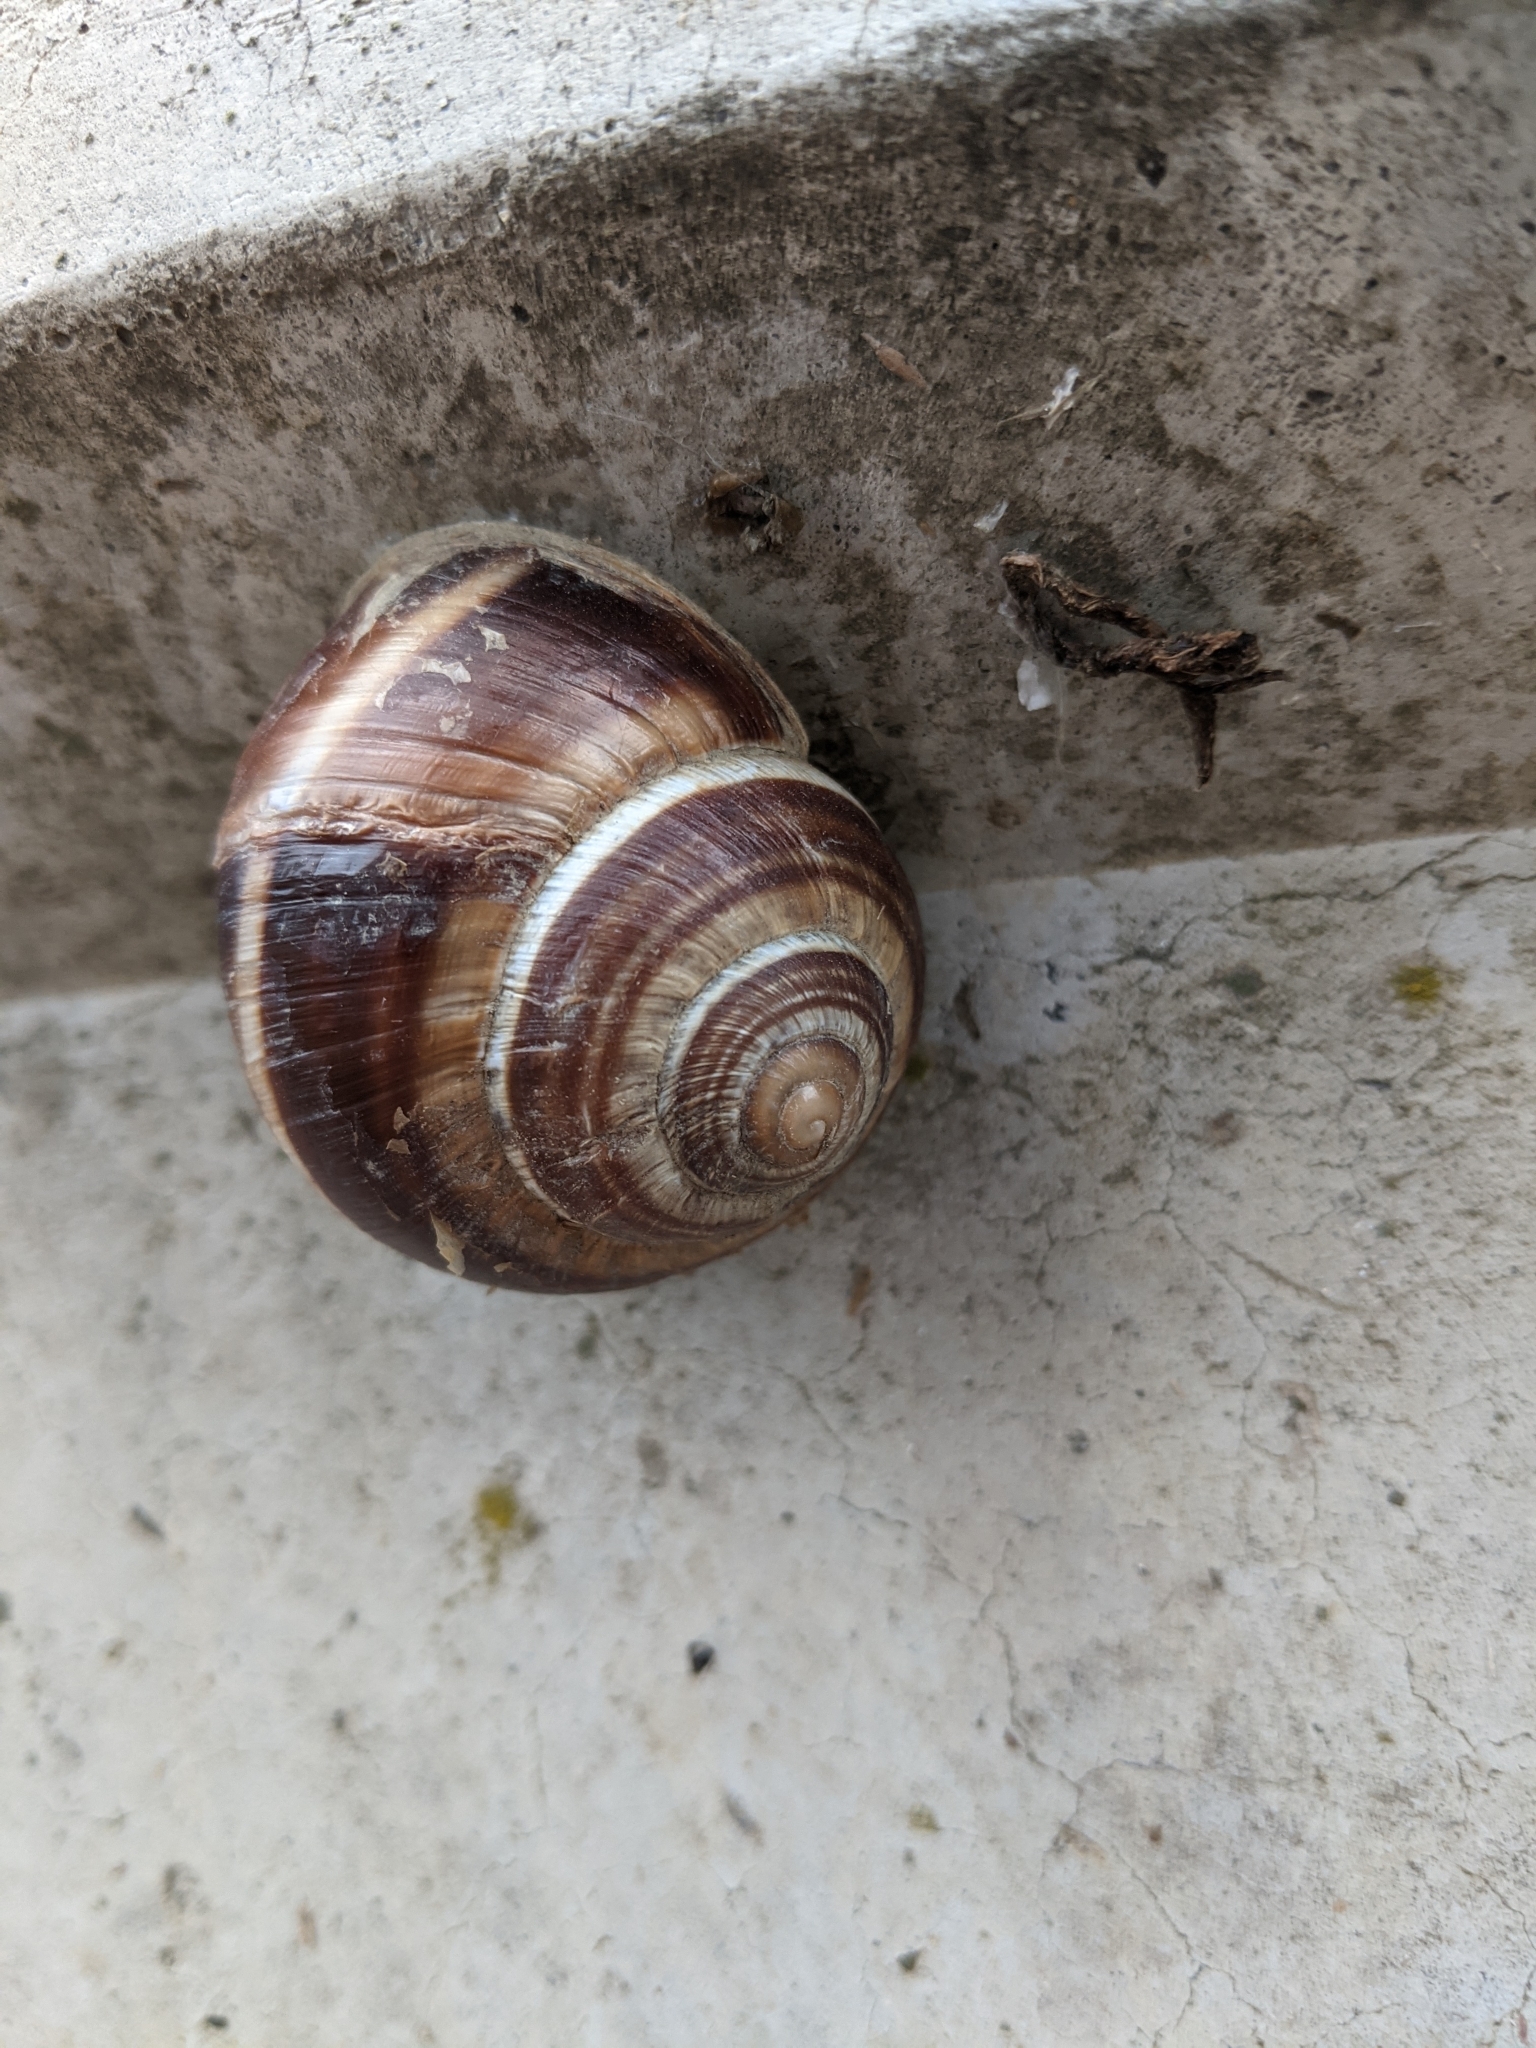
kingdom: Animalia
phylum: Mollusca
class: Gastropoda
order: Stylommatophora
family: Helicidae
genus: Helix
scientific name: Helix lucorum
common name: Turkish snail
